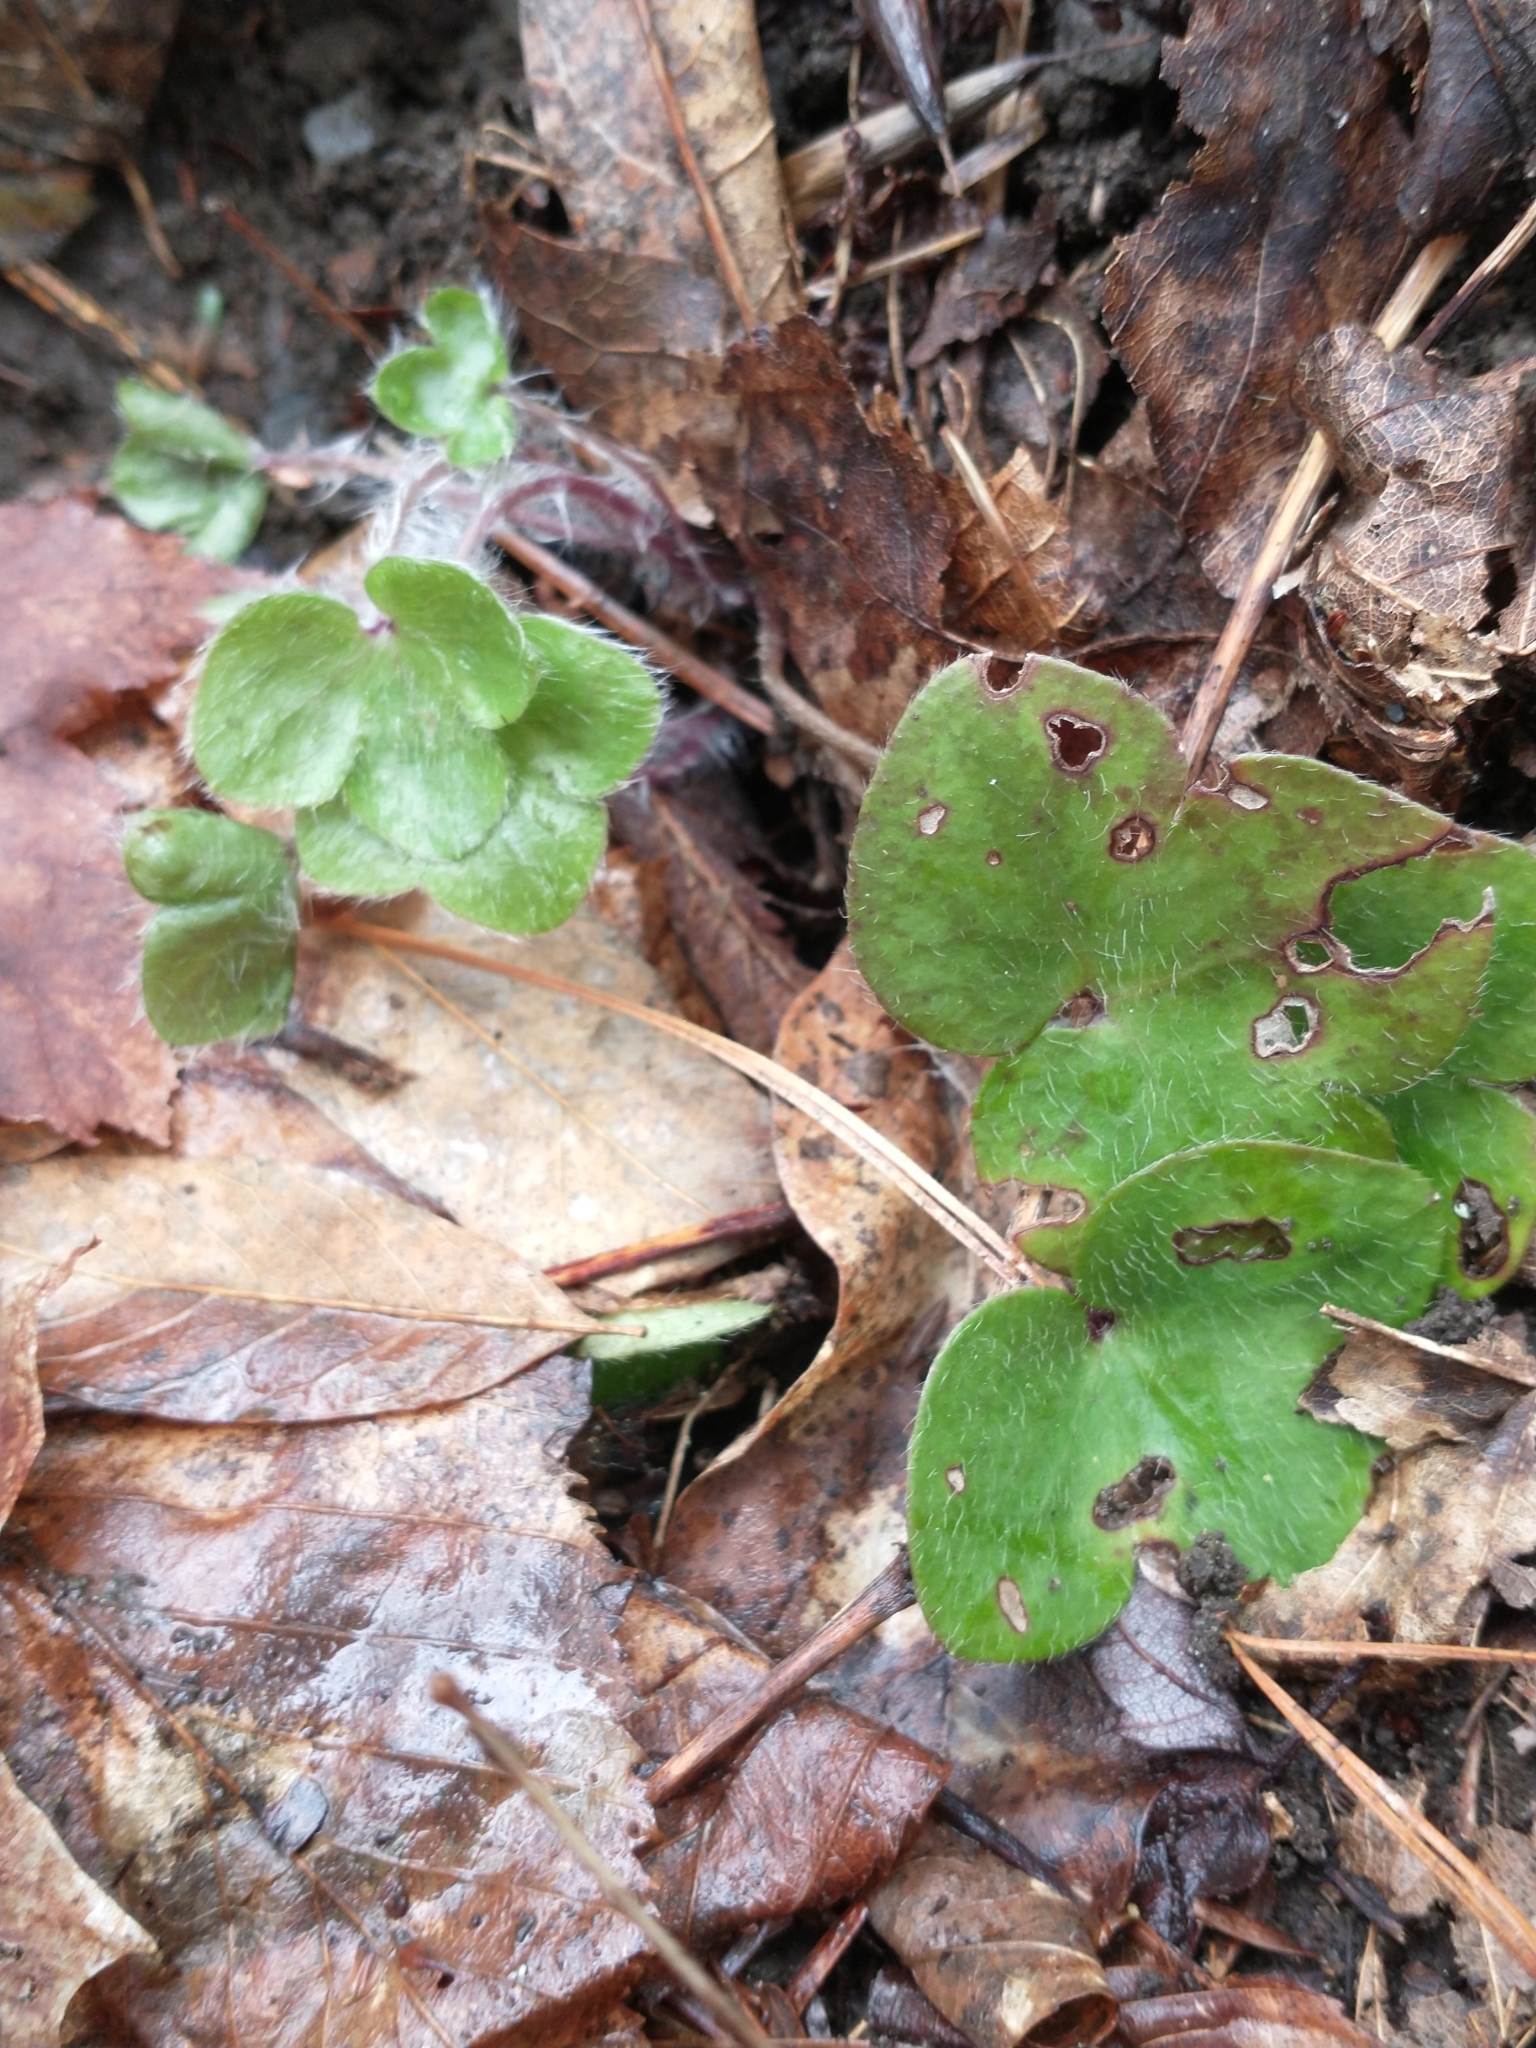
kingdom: Plantae
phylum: Tracheophyta
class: Magnoliopsida
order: Ranunculales
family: Ranunculaceae
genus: Hepatica
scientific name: Hepatica americana
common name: American hepatica
